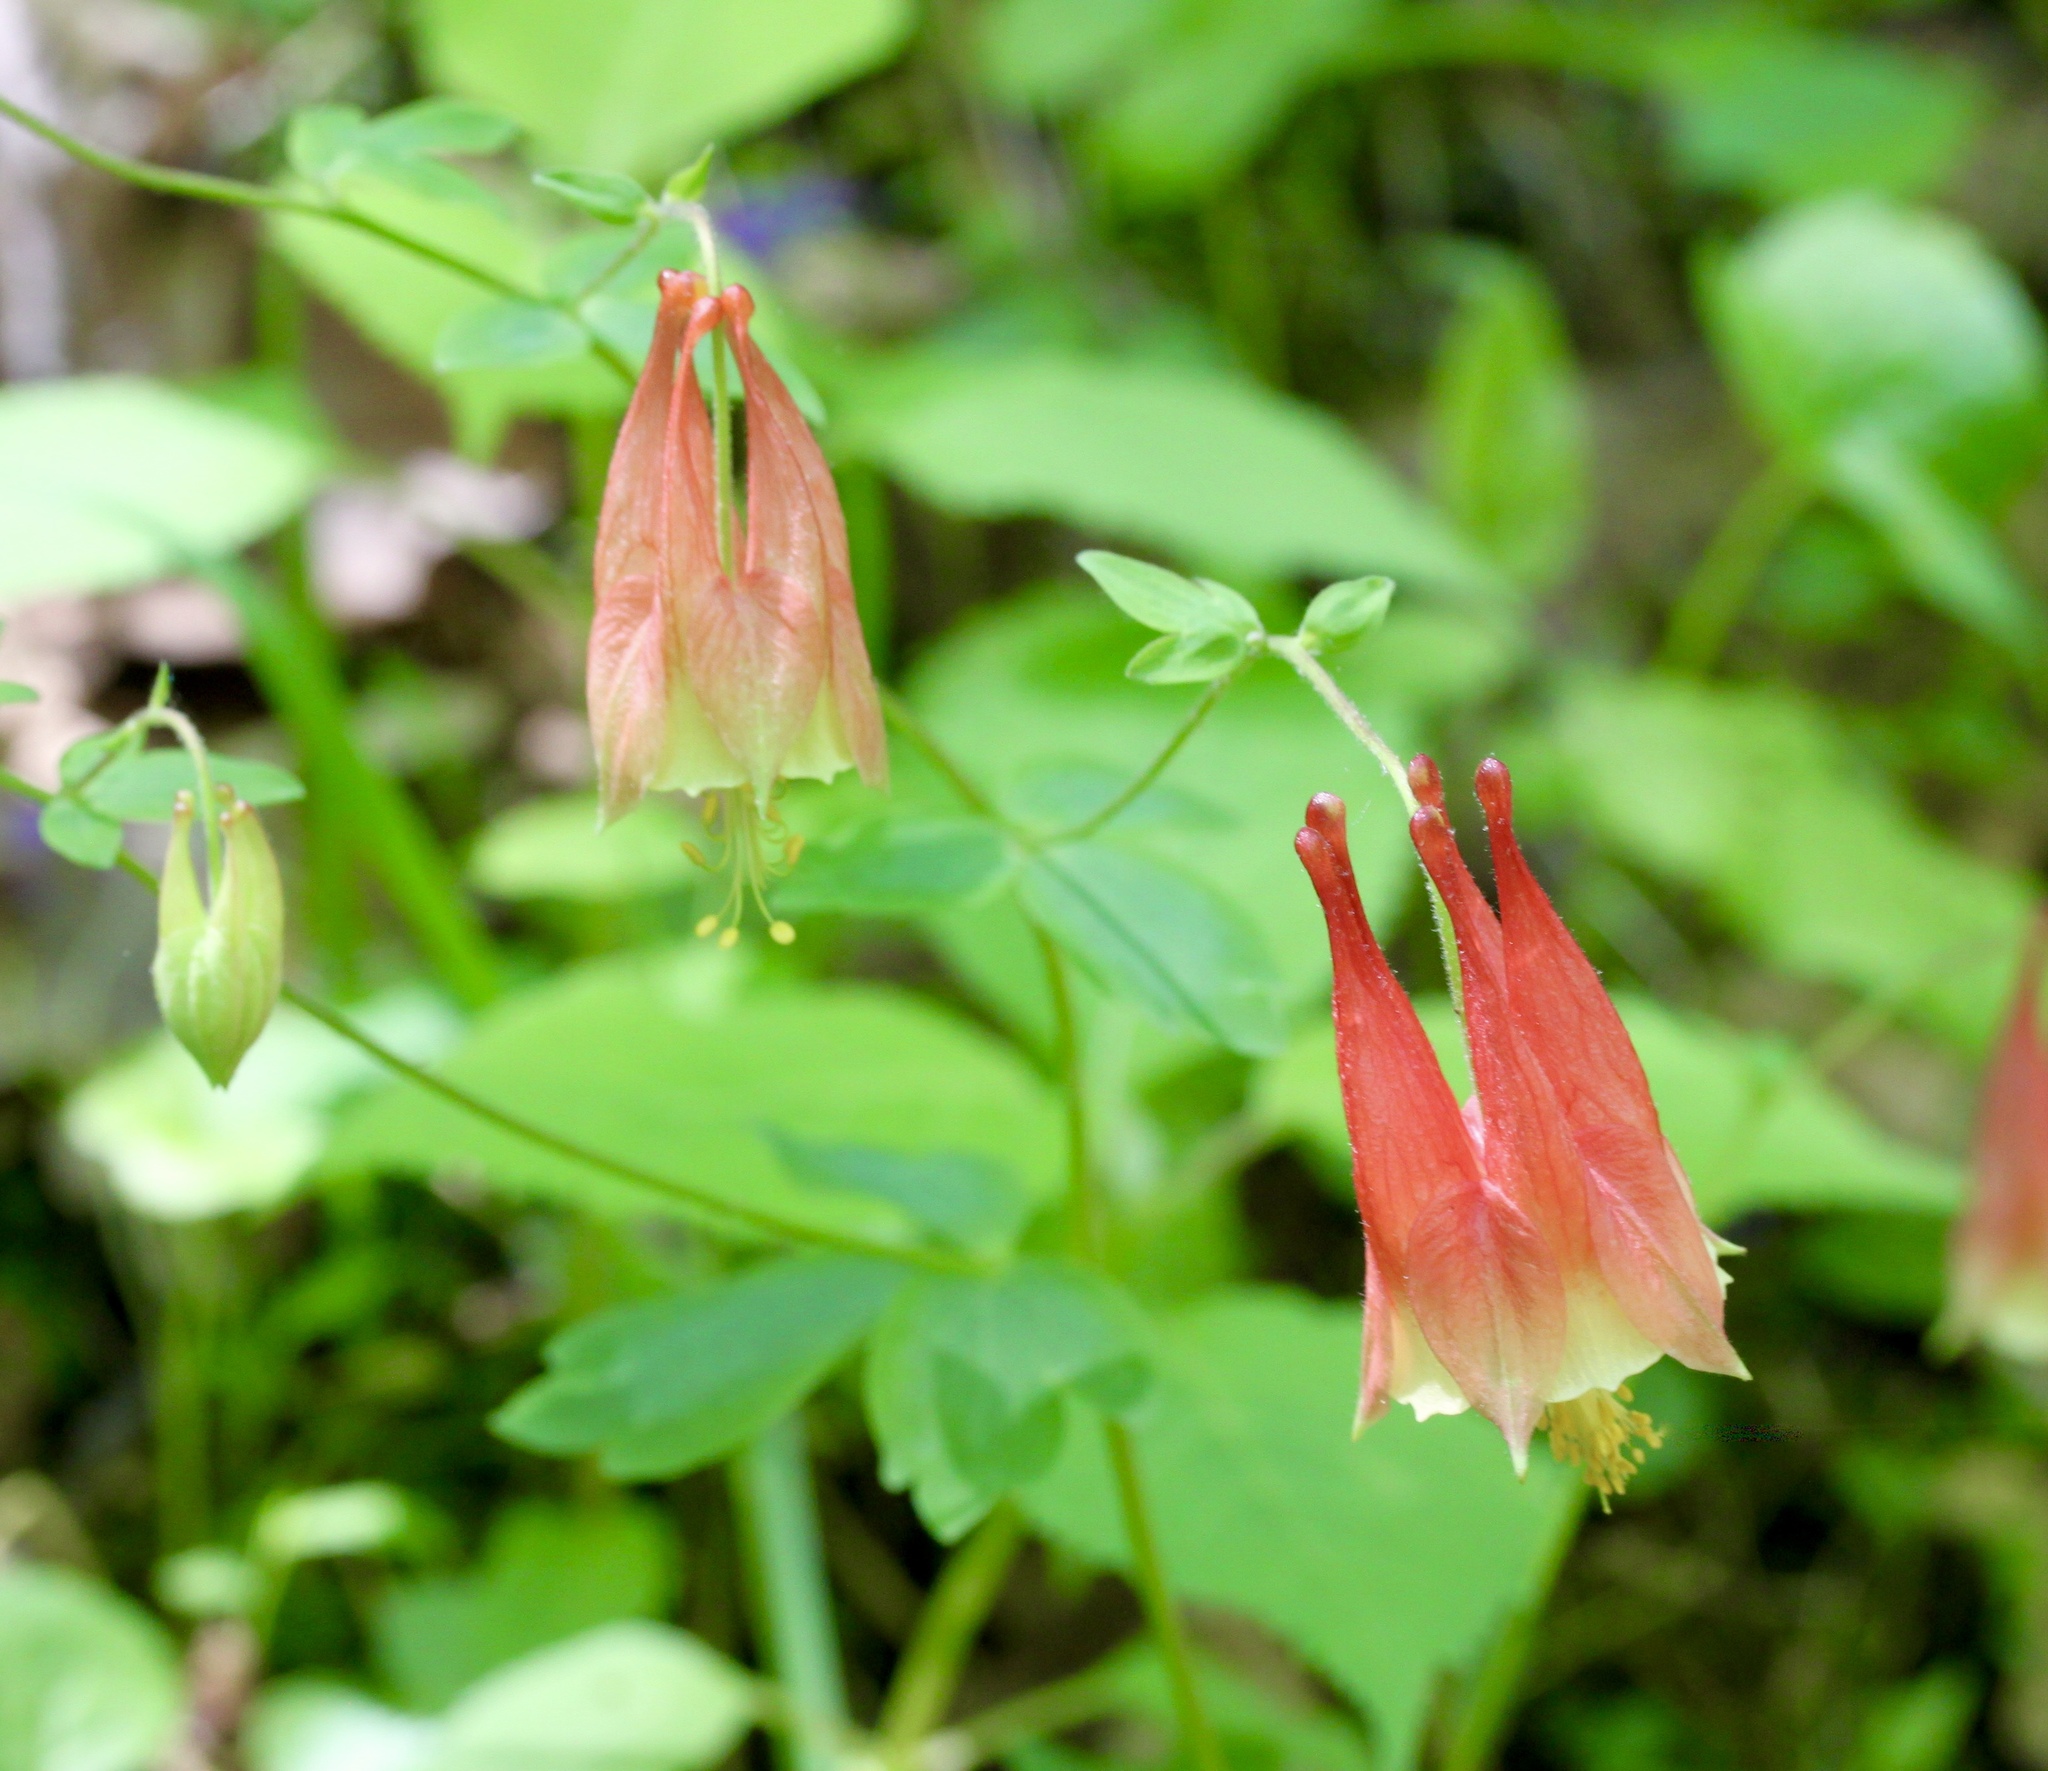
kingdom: Plantae
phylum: Tracheophyta
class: Magnoliopsida
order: Ranunculales
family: Ranunculaceae
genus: Aquilegia
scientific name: Aquilegia canadensis
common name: American columbine
